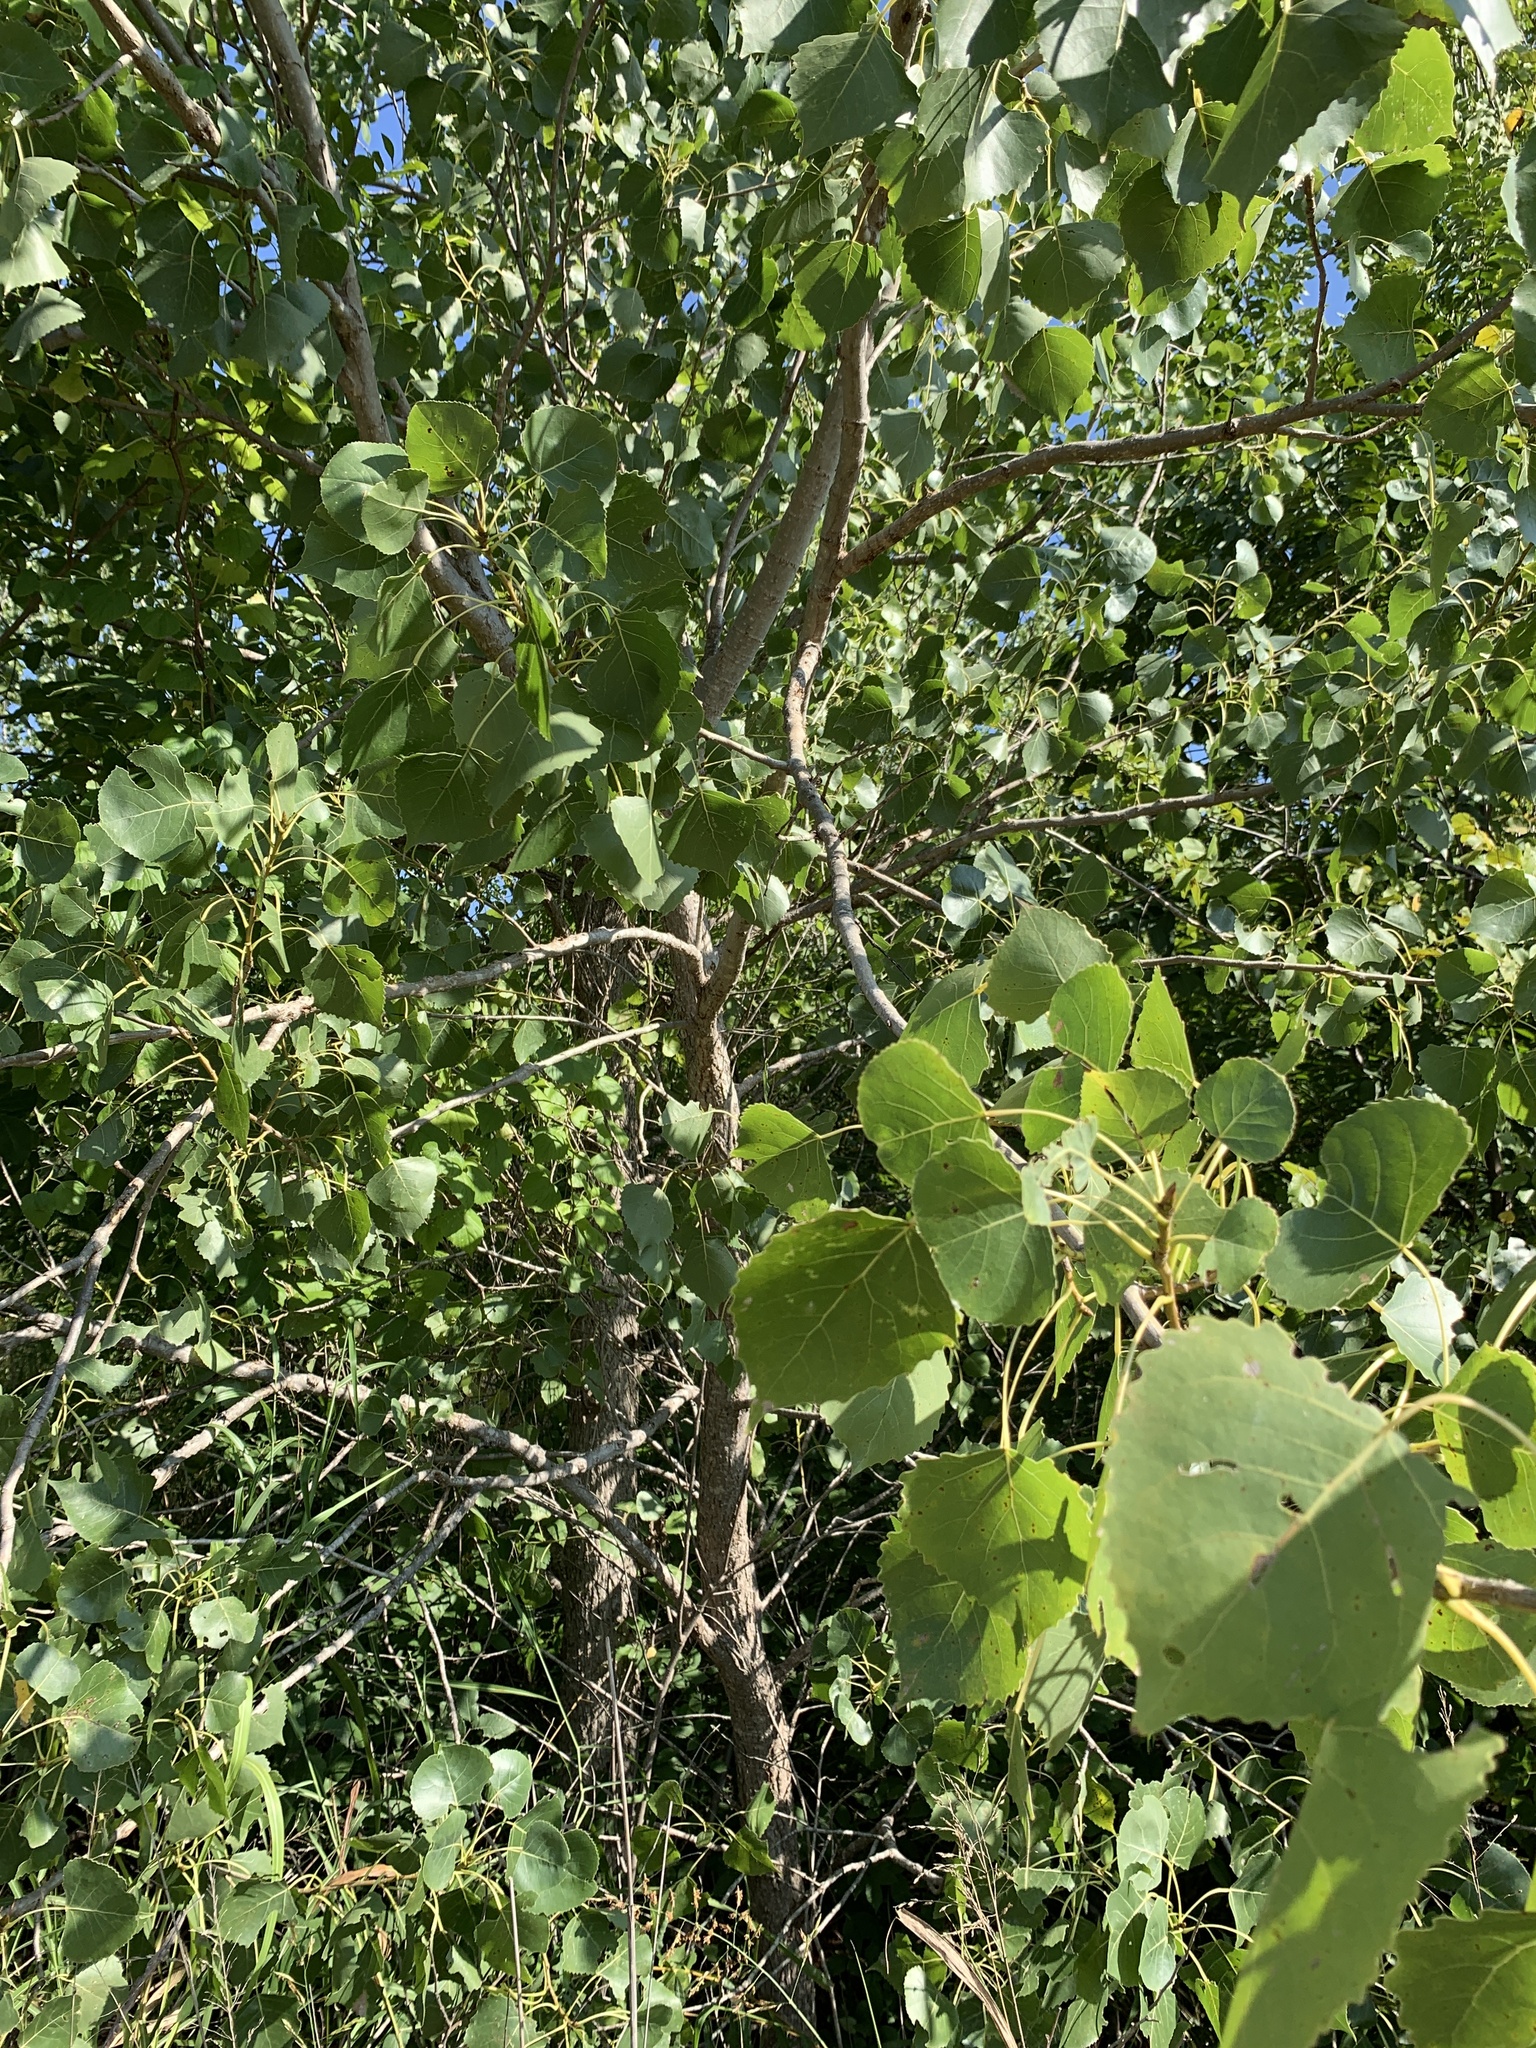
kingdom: Plantae
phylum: Tracheophyta
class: Magnoliopsida
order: Malpighiales
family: Salicaceae
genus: Populus
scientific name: Populus deltoides
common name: Eastern cottonwood
